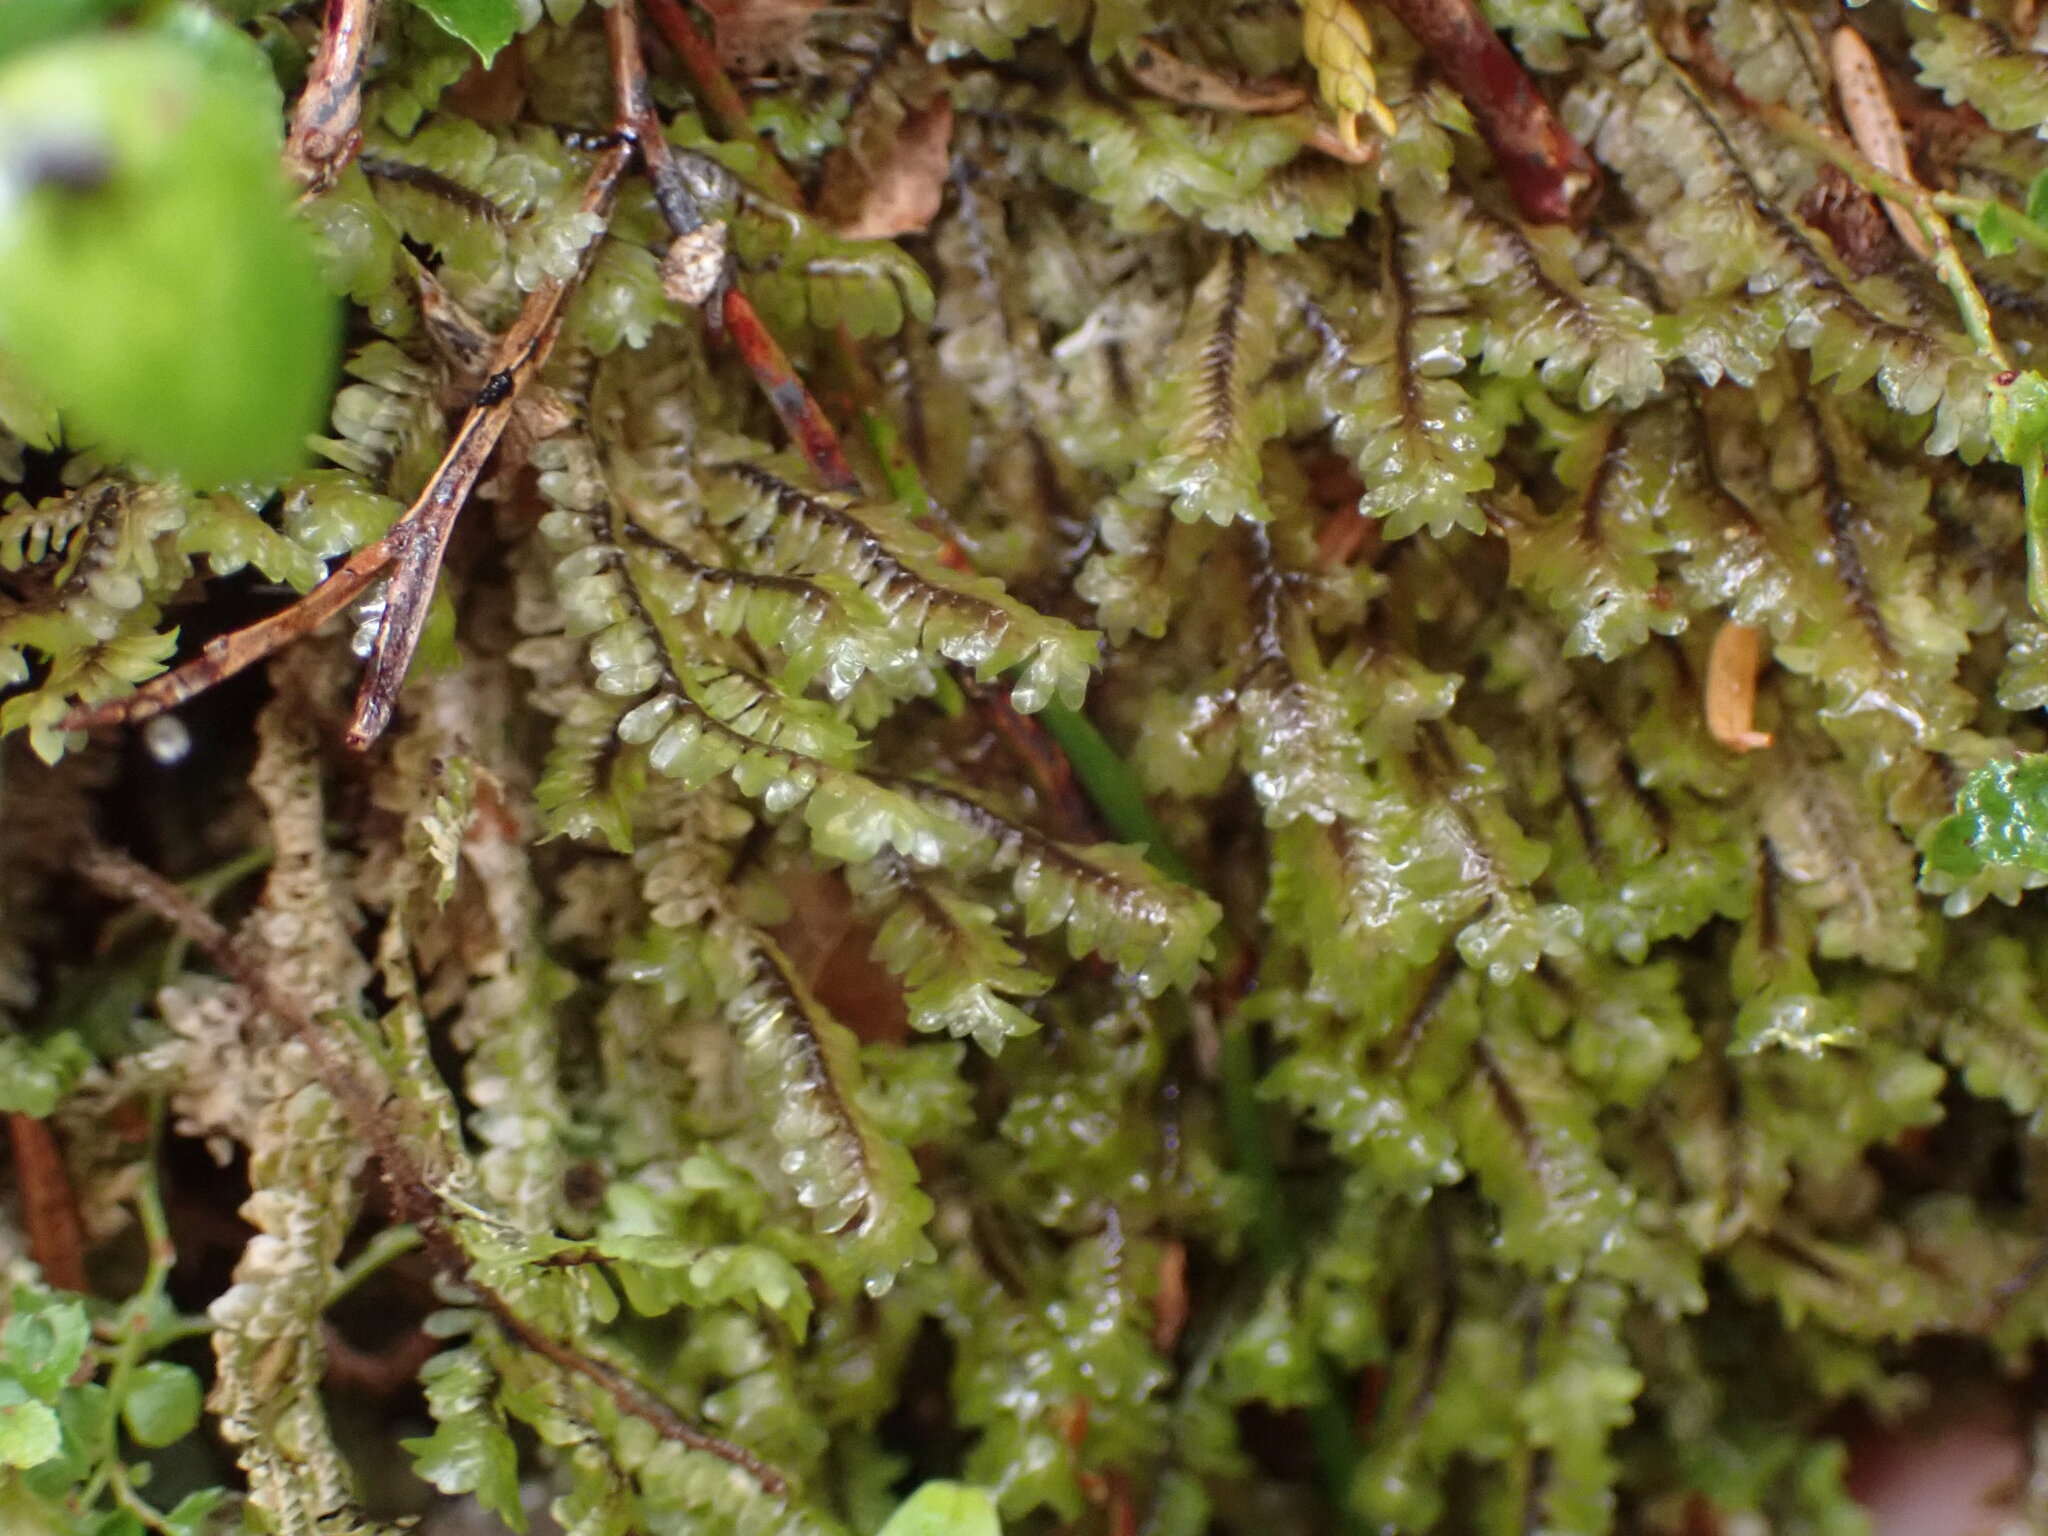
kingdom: Plantae
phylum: Marchantiophyta
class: Jungermanniopsida
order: Jungermanniales
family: Scapaniaceae
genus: Macrodiplophyllum
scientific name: Macrodiplophyllum rubrum
